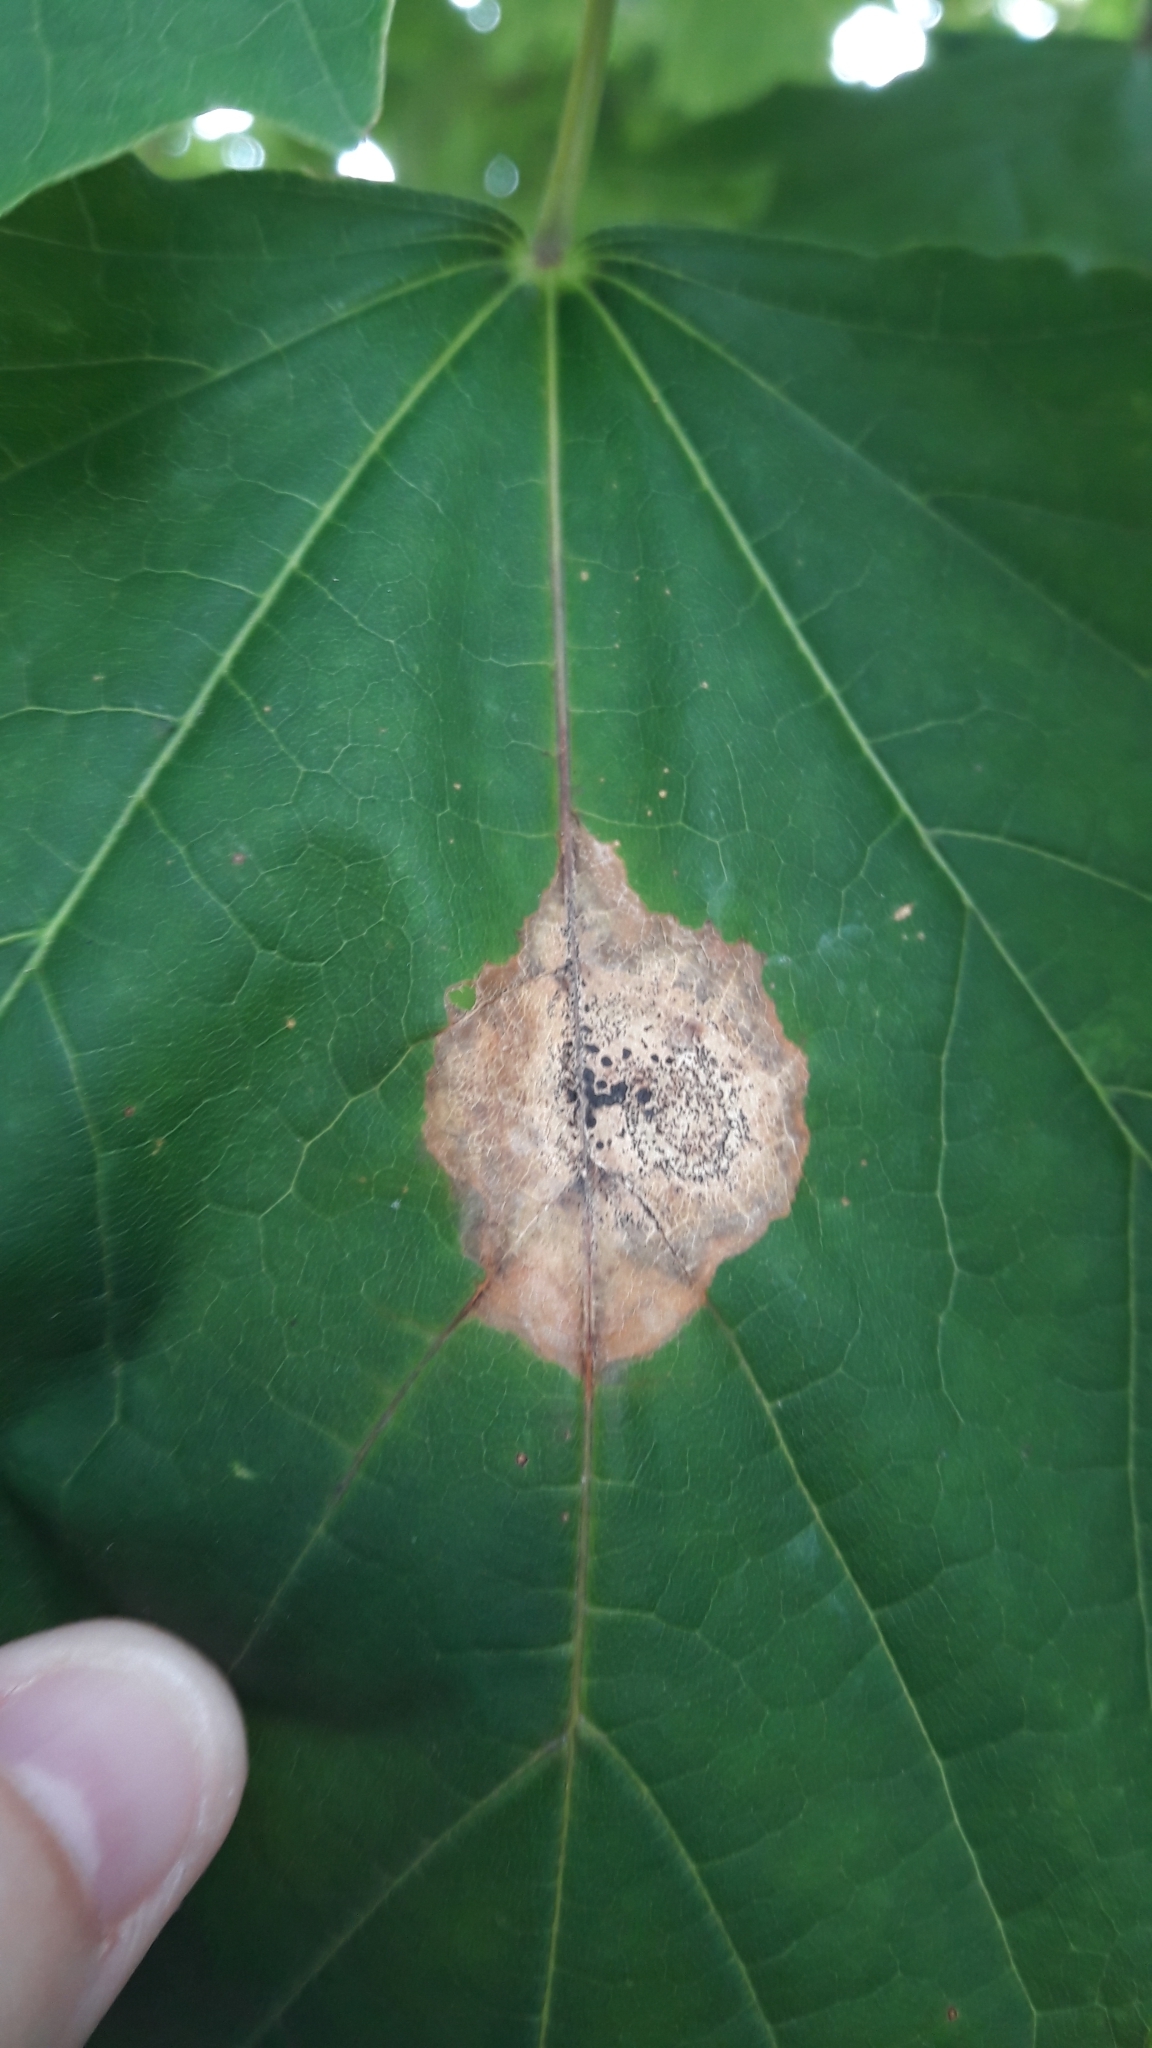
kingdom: Fungi
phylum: Ascomycota
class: Leotiomycetes
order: Rhytismatales
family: Rhytismataceae
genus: Rhytisma
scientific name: Rhytisma acerinum
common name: European tar spot
